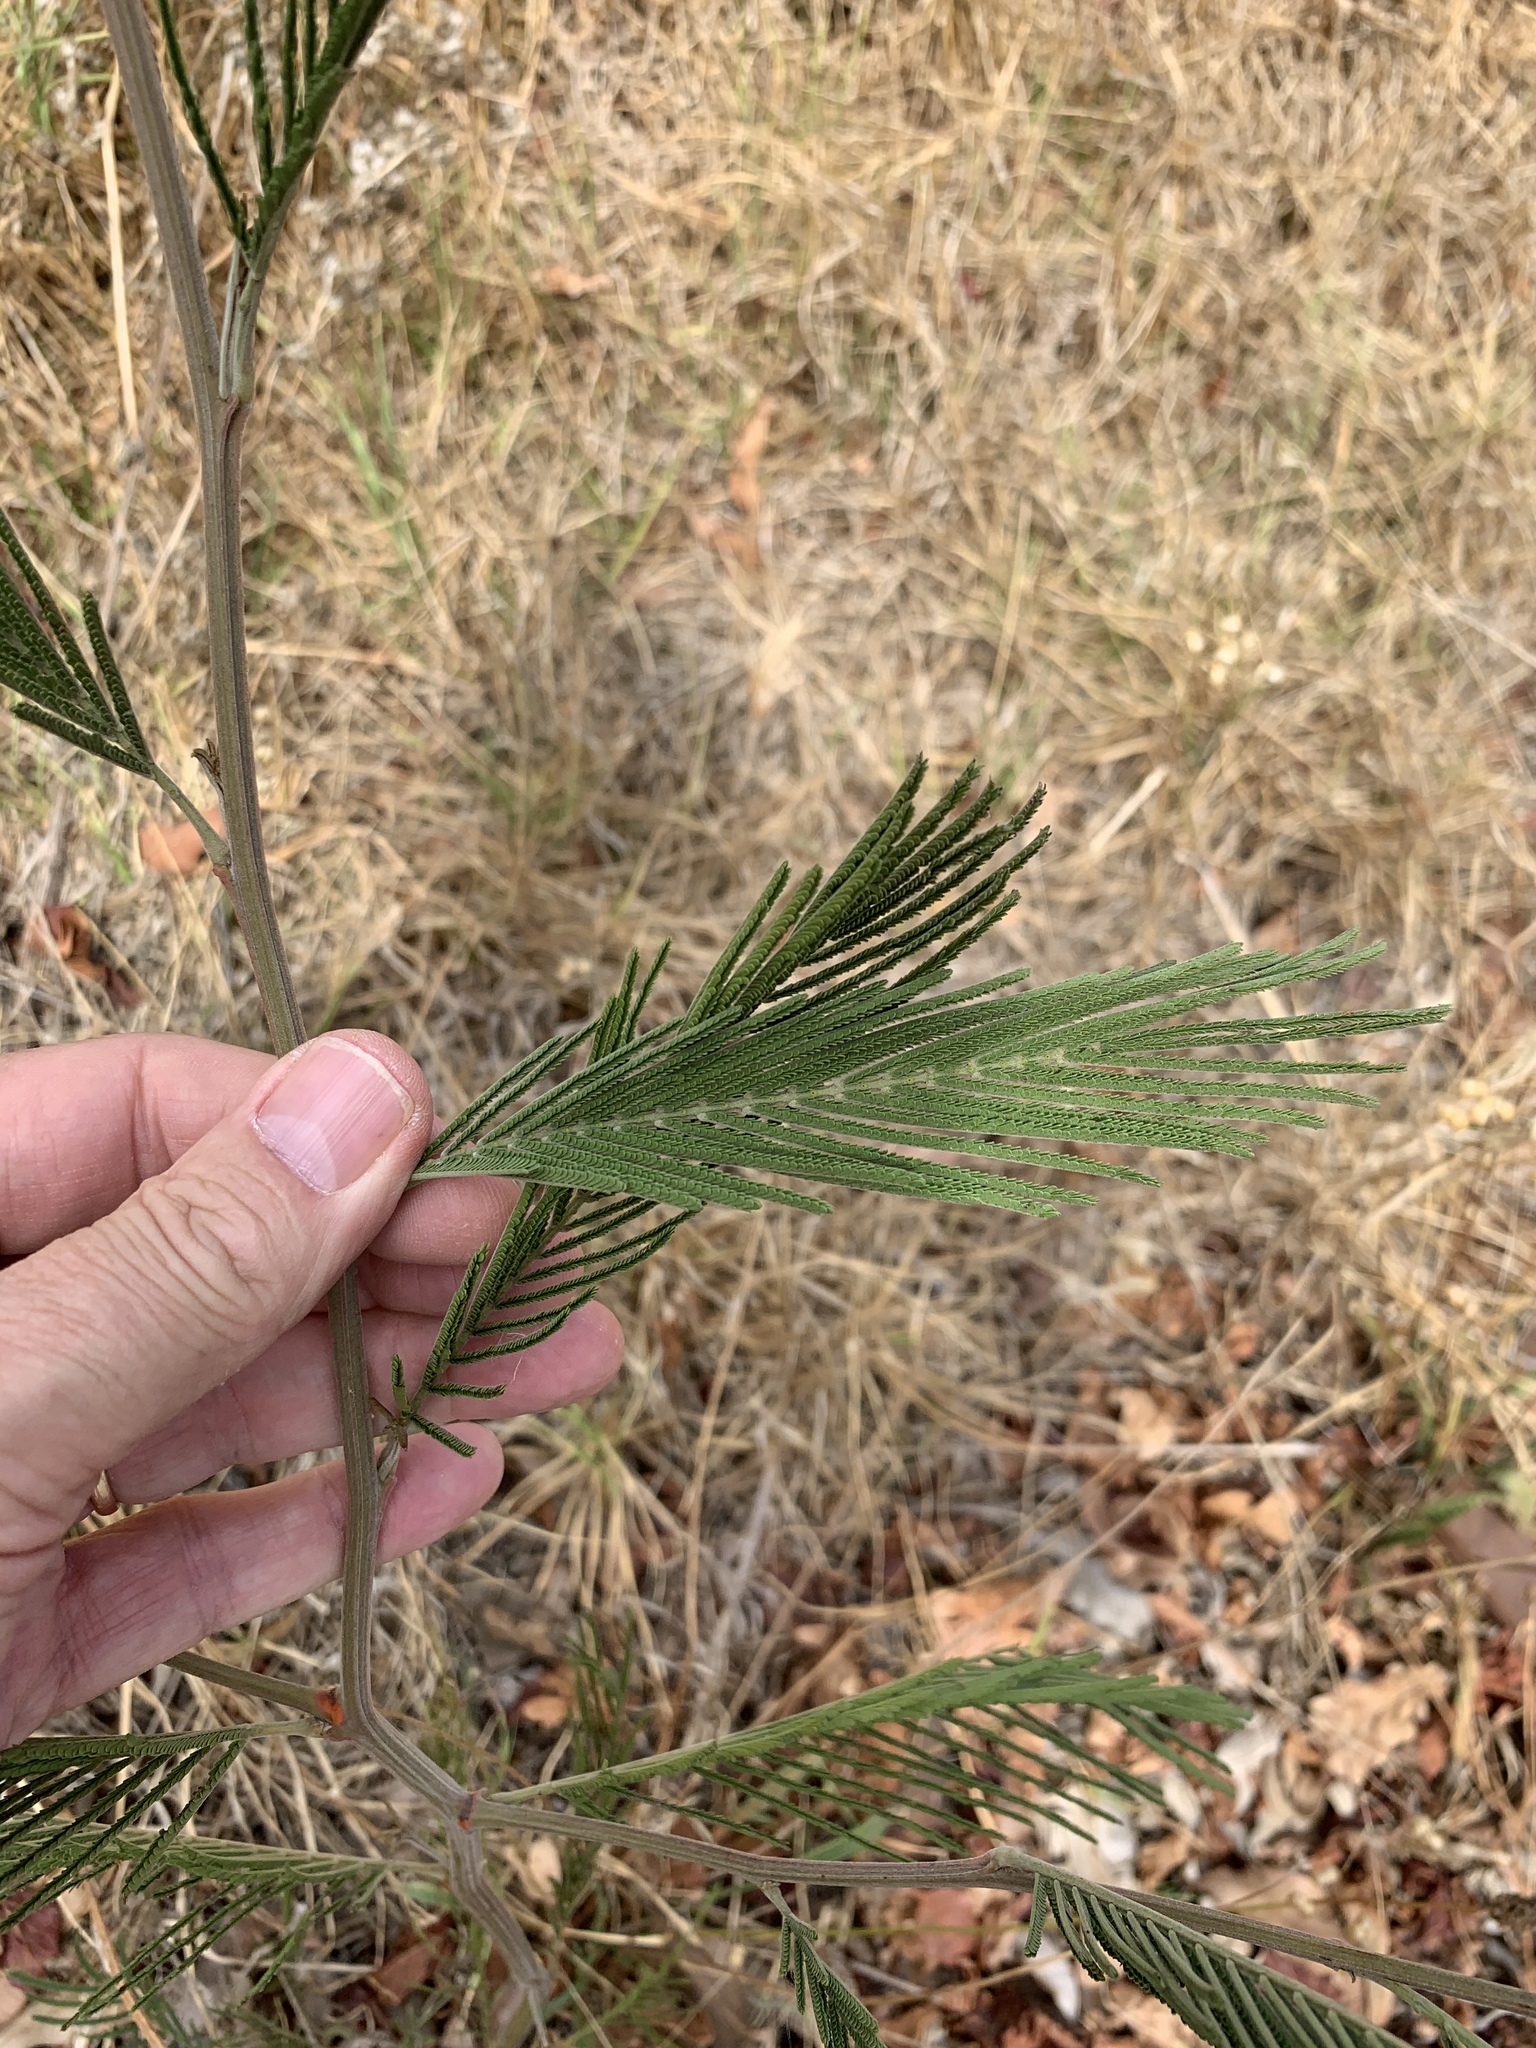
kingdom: Plantae
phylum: Tracheophyta
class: Magnoliopsida
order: Fabales
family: Fabaceae
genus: Acacia
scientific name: Acacia mearnsii
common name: Black wattle
